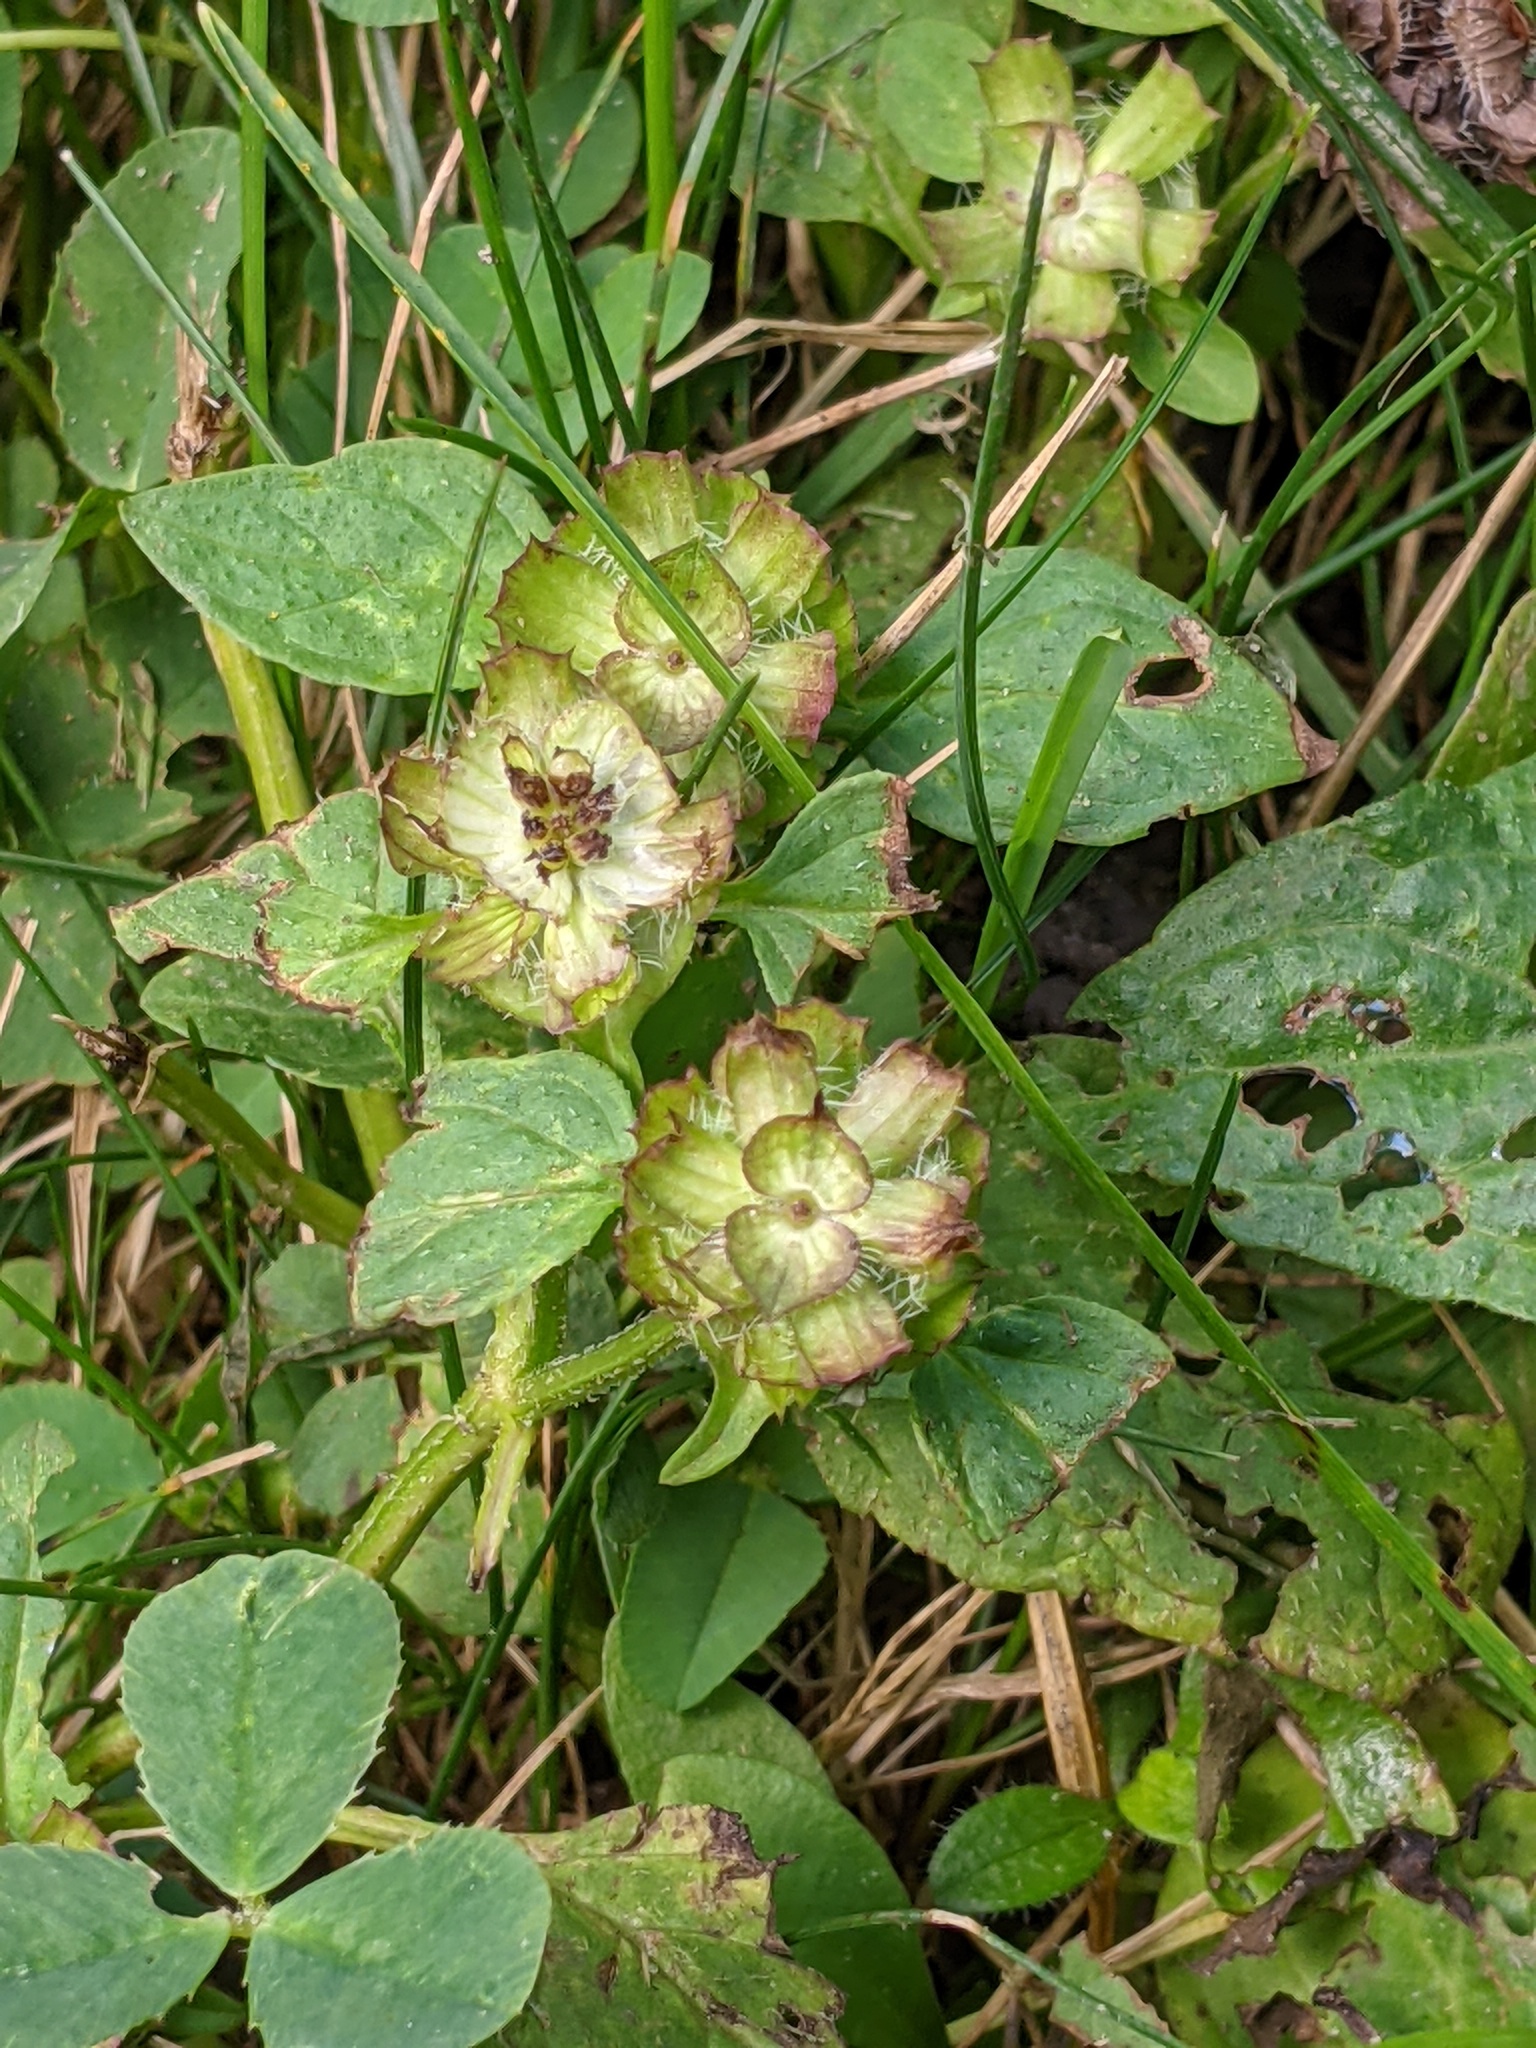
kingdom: Plantae
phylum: Tracheophyta
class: Magnoliopsida
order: Lamiales
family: Lamiaceae
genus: Prunella
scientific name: Prunella vulgaris
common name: Heal-all
